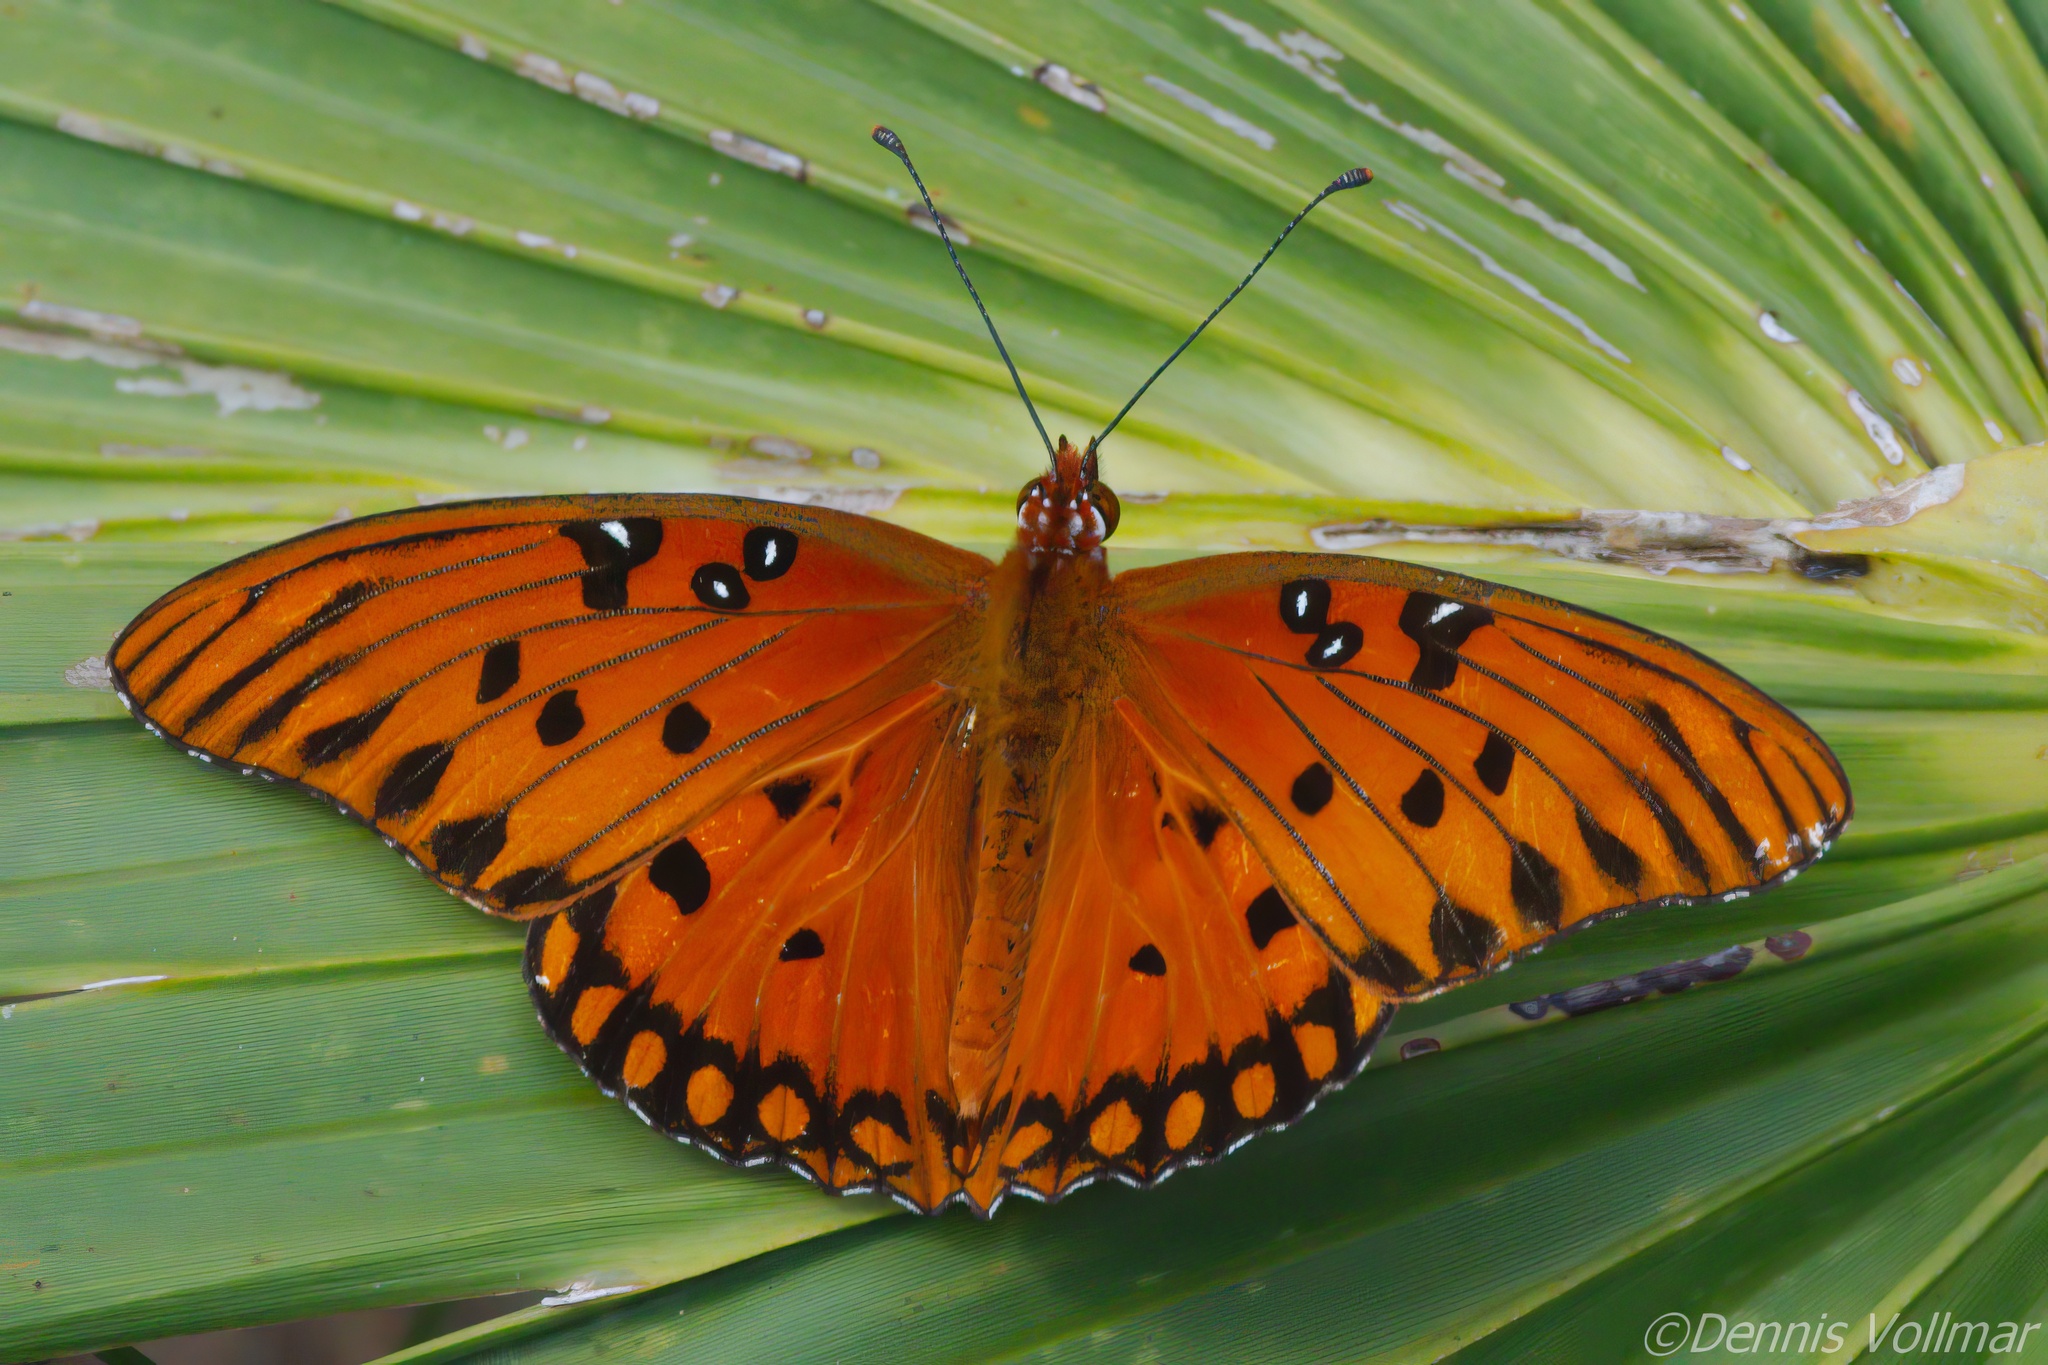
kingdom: Animalia
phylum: Arthropoda
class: Insecta
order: Lepidoptera
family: Nymphalidae
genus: Dione
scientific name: Dione vanillae
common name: Gulf fritillary
